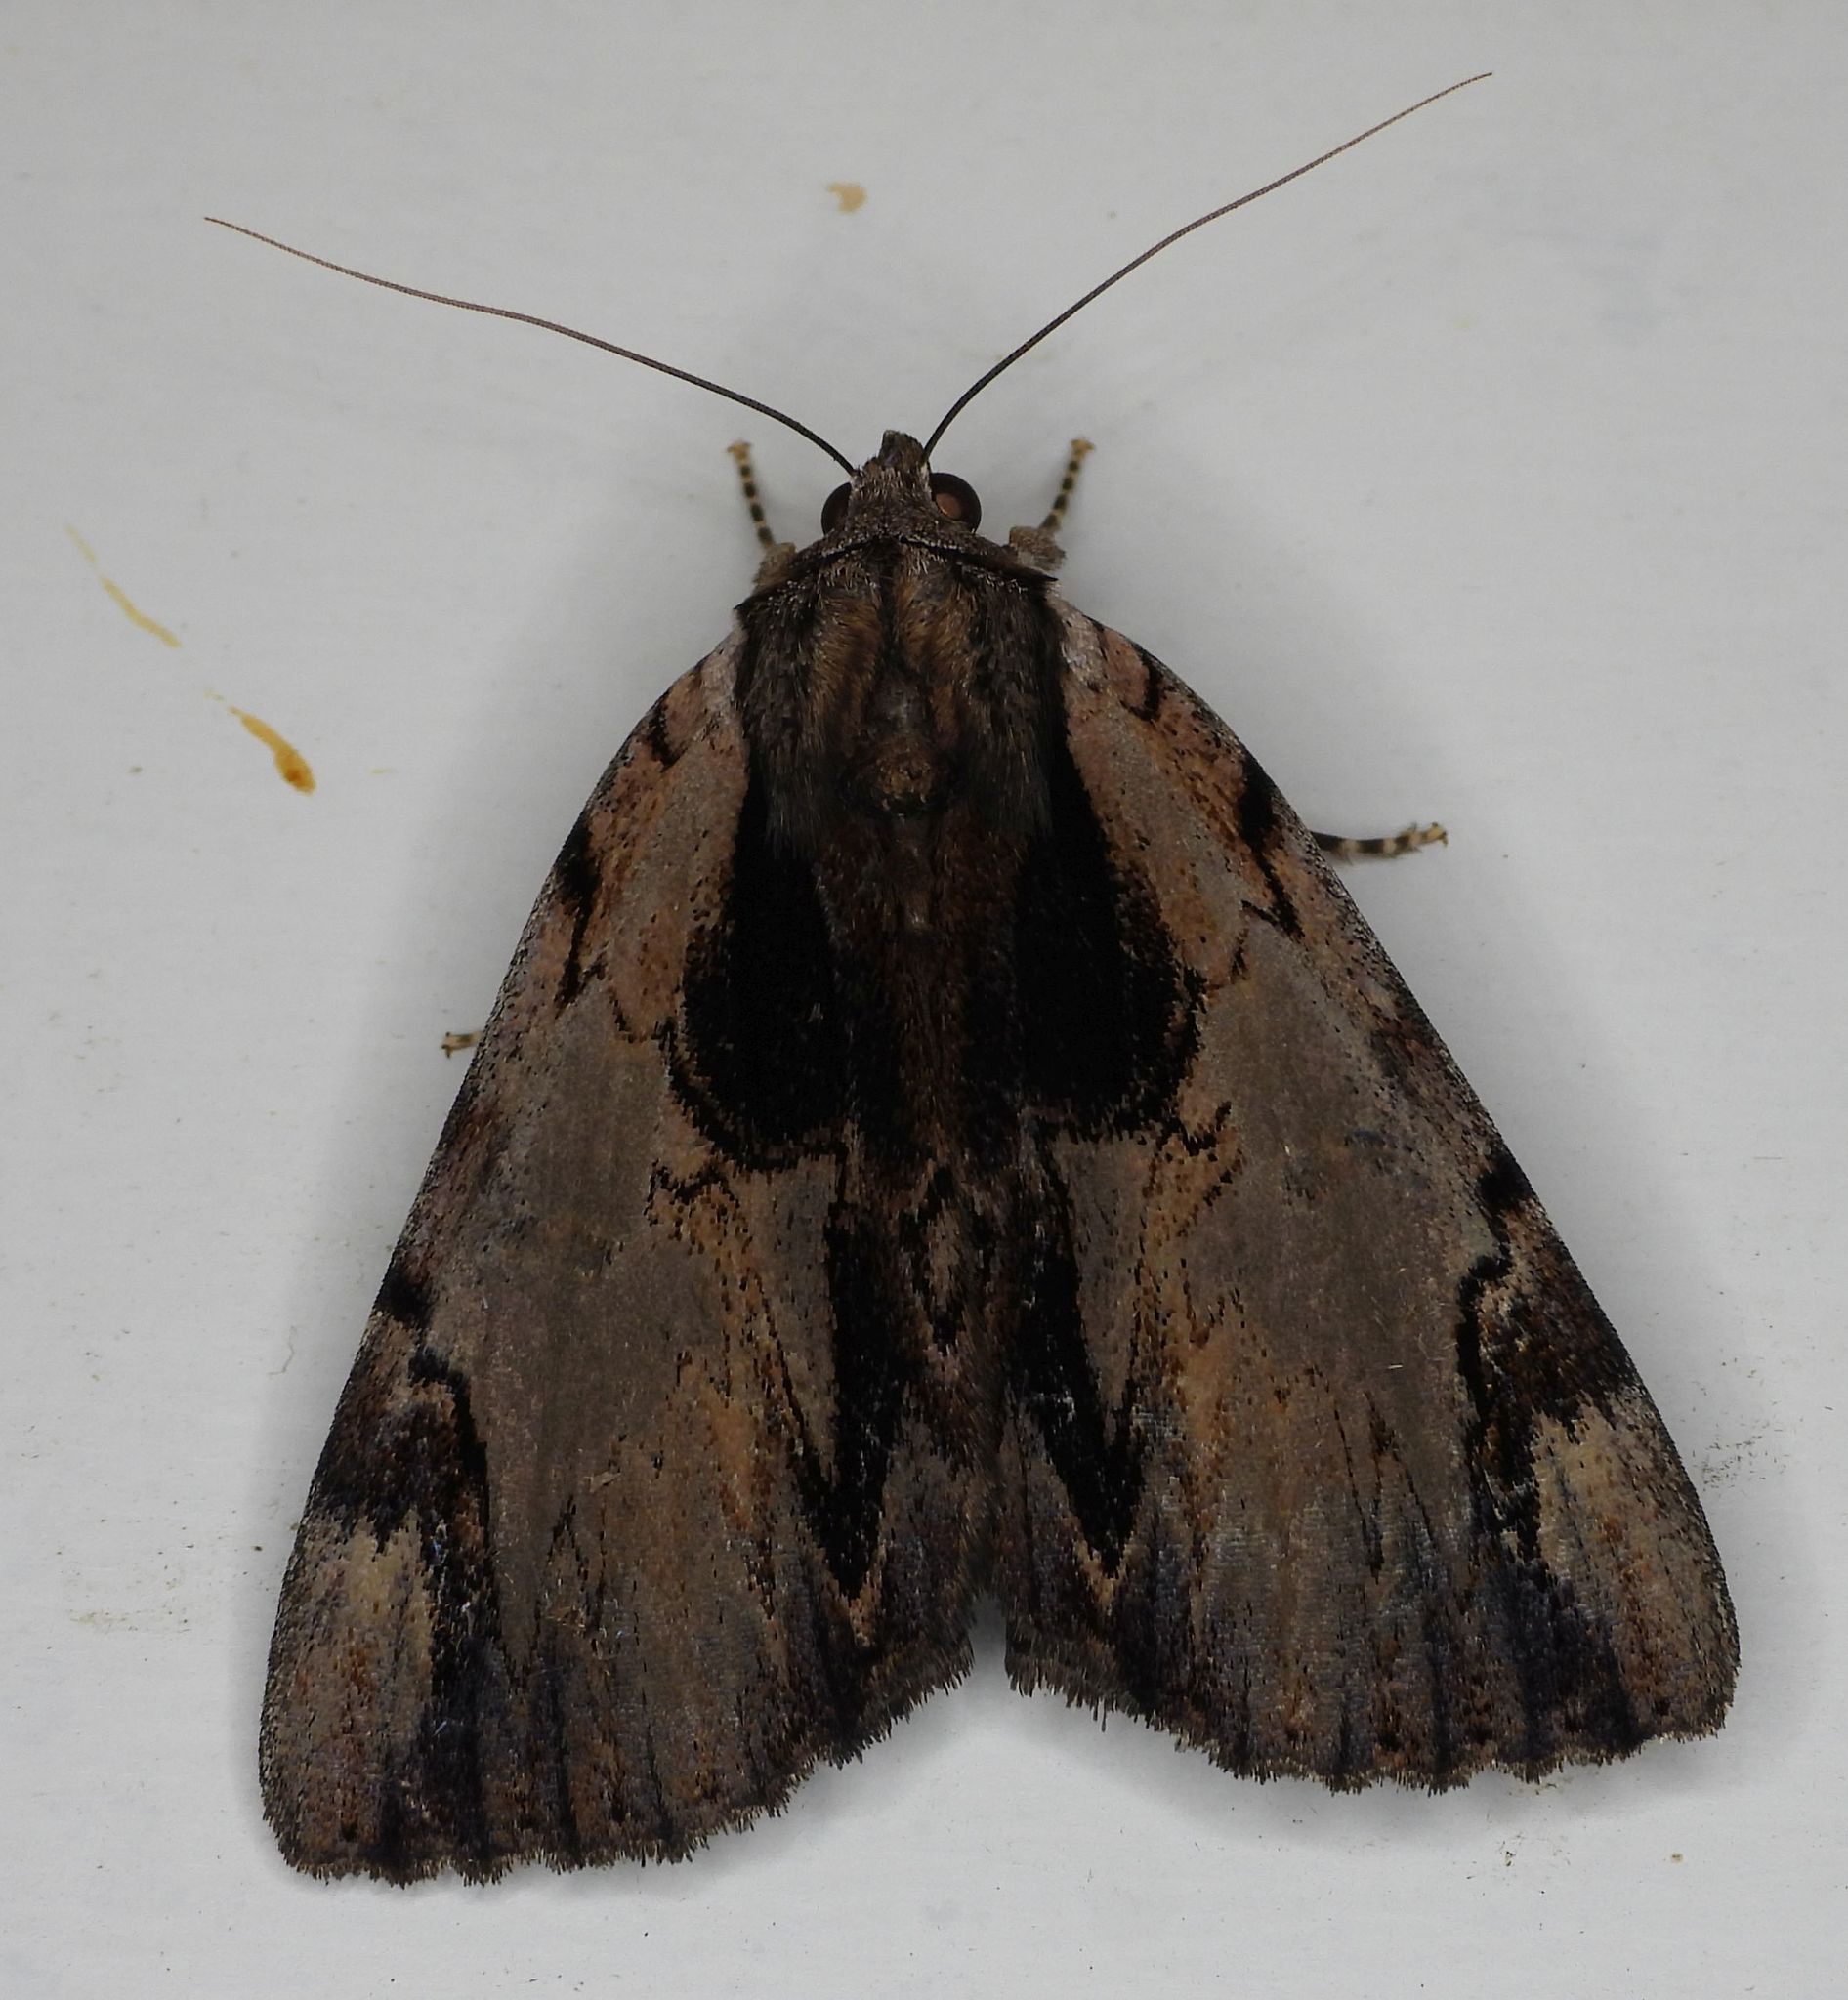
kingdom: Animalia
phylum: Arthropoda
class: Insecta
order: Lepidoptera
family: Erebidae
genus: Catocala
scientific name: Catocala ultronia
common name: Ultronia underwing
